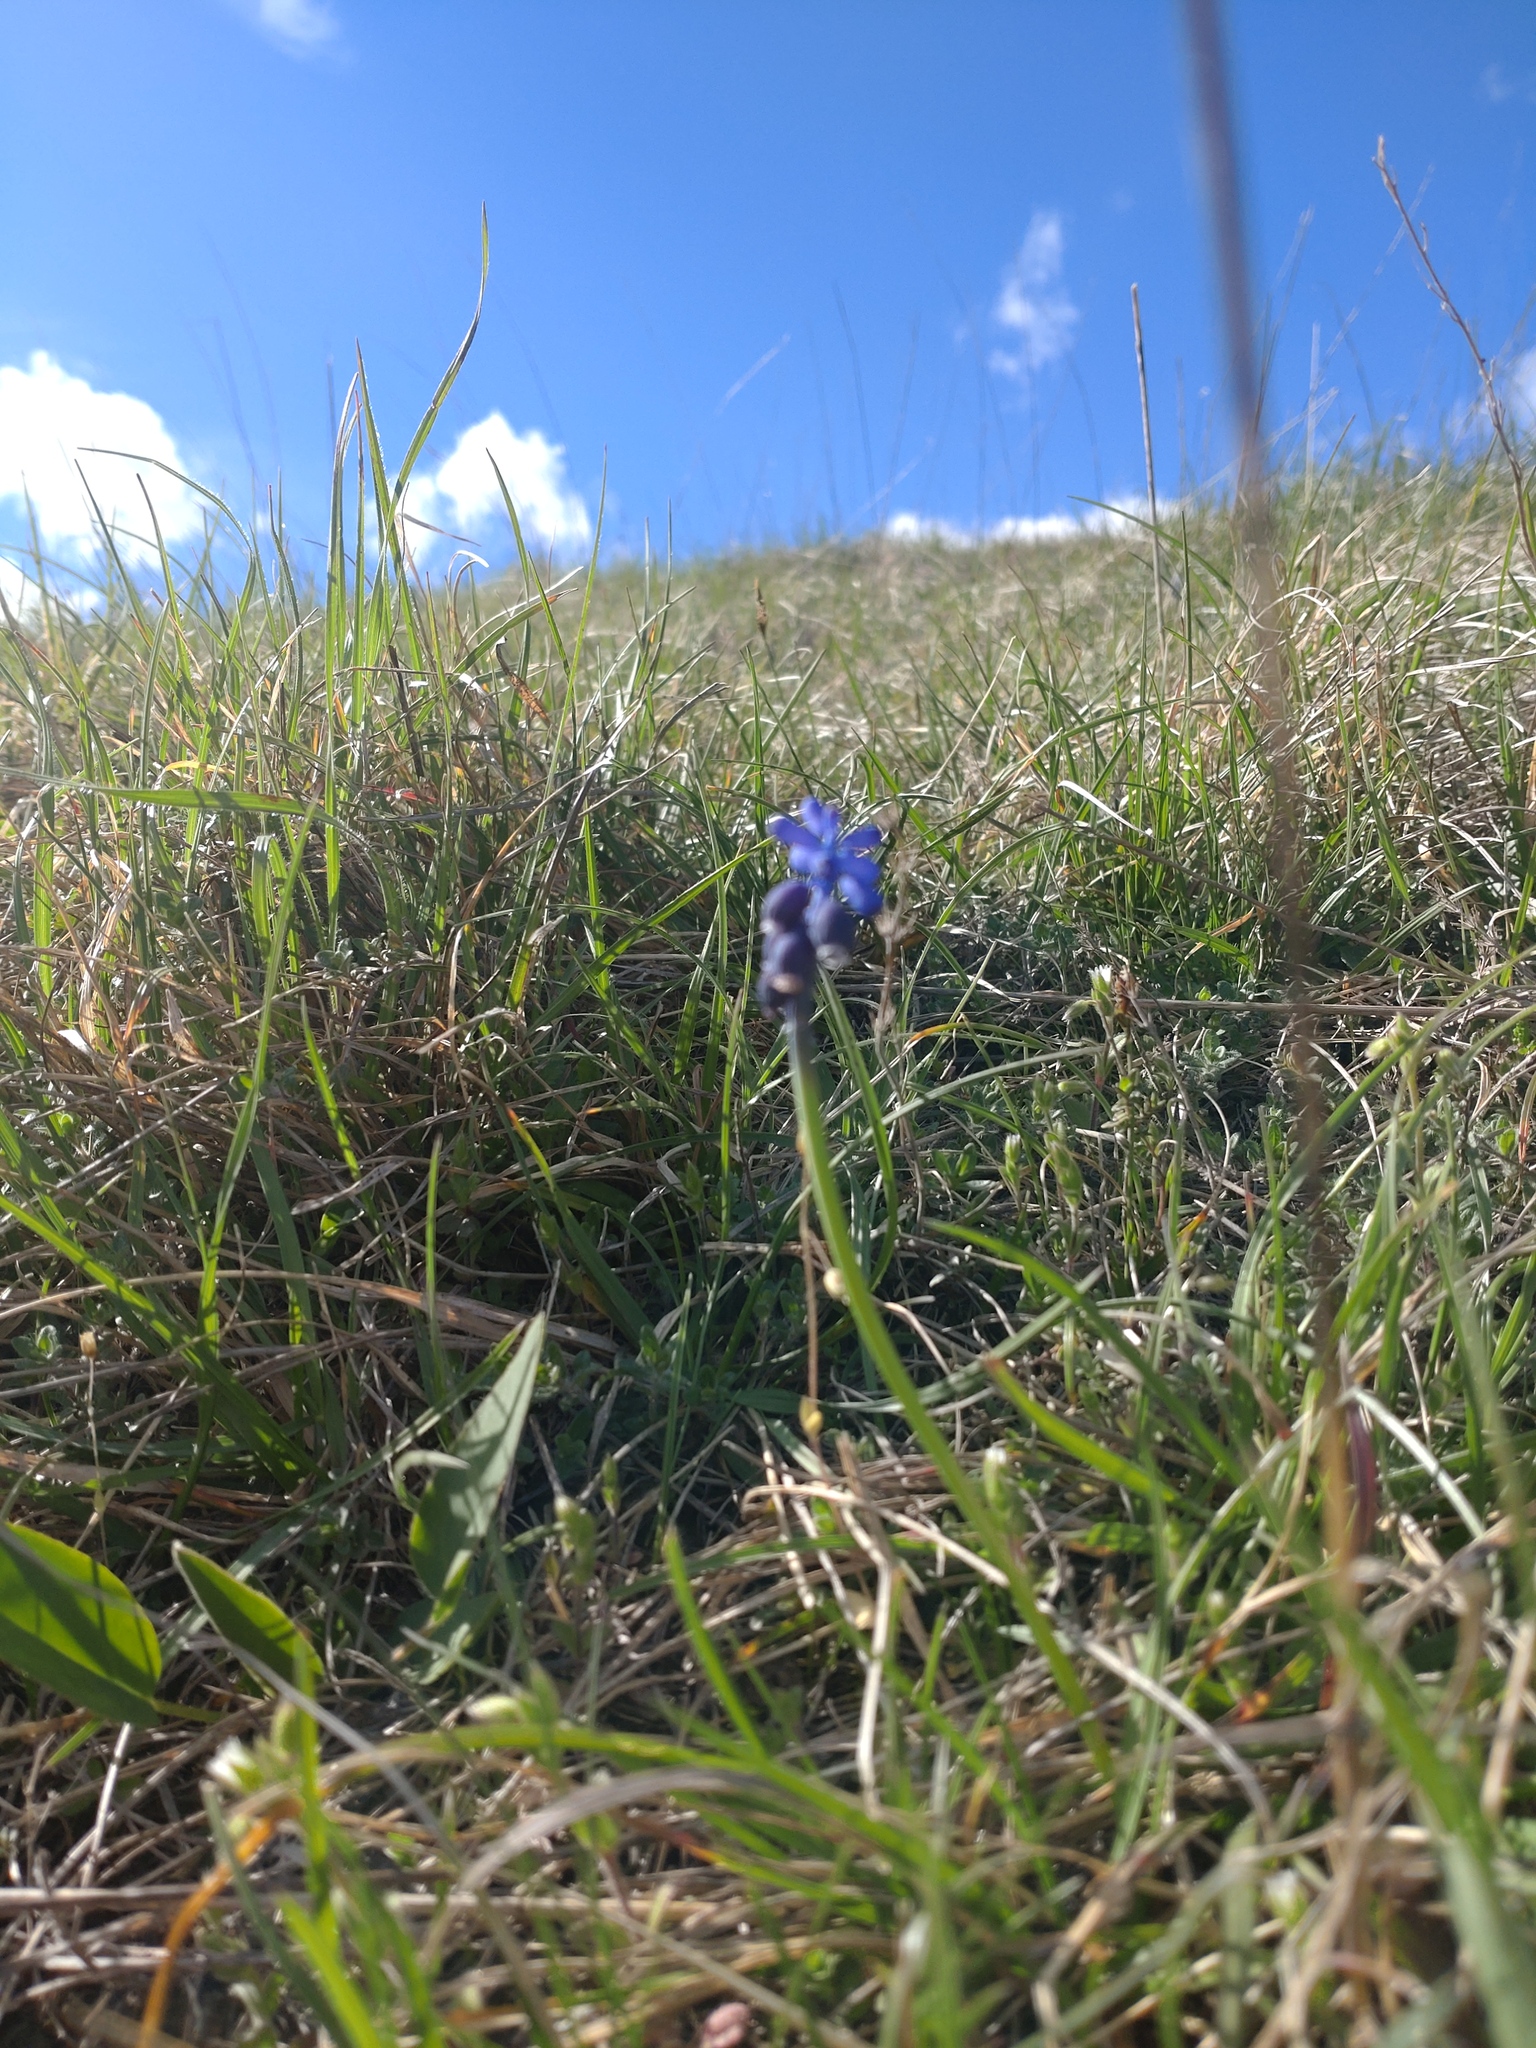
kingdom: Plantae
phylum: Tracheophyta
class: Liliopsida
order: Asparagales
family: Asparagaceae
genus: Muscari
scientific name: Muscari neglectum
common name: Grape-hyacinth
